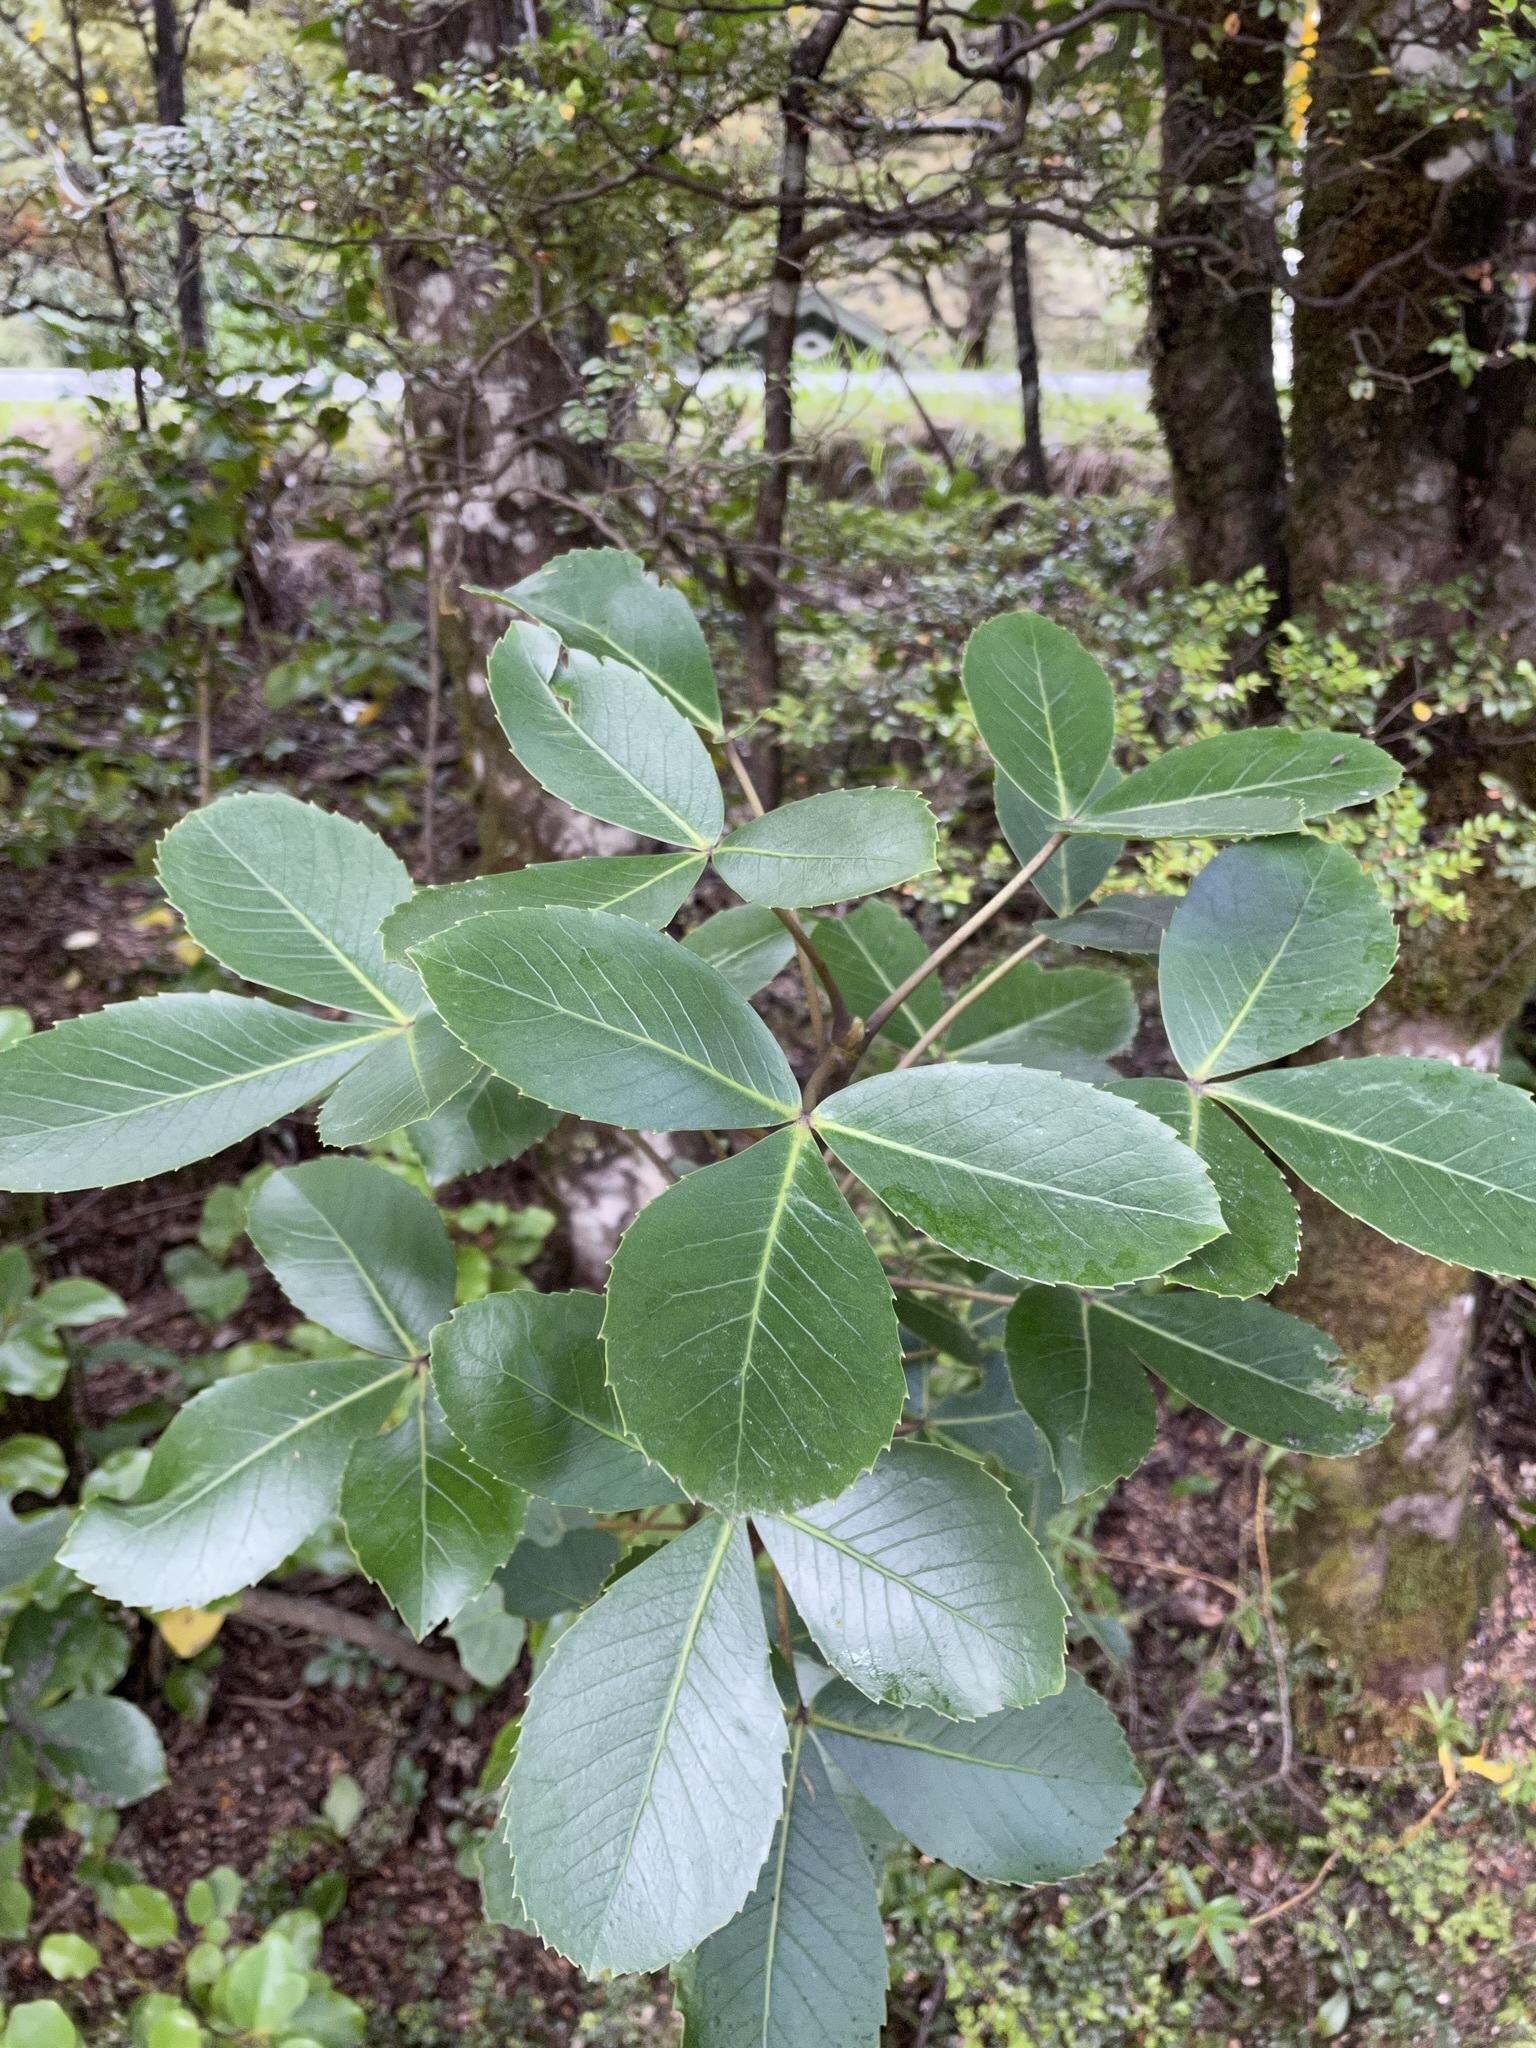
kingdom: Plantae
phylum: Tracheophyta
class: Magnoliopsida
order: Apiales
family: Araliaceae
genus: Neopanax
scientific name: Neopanax colensoi
